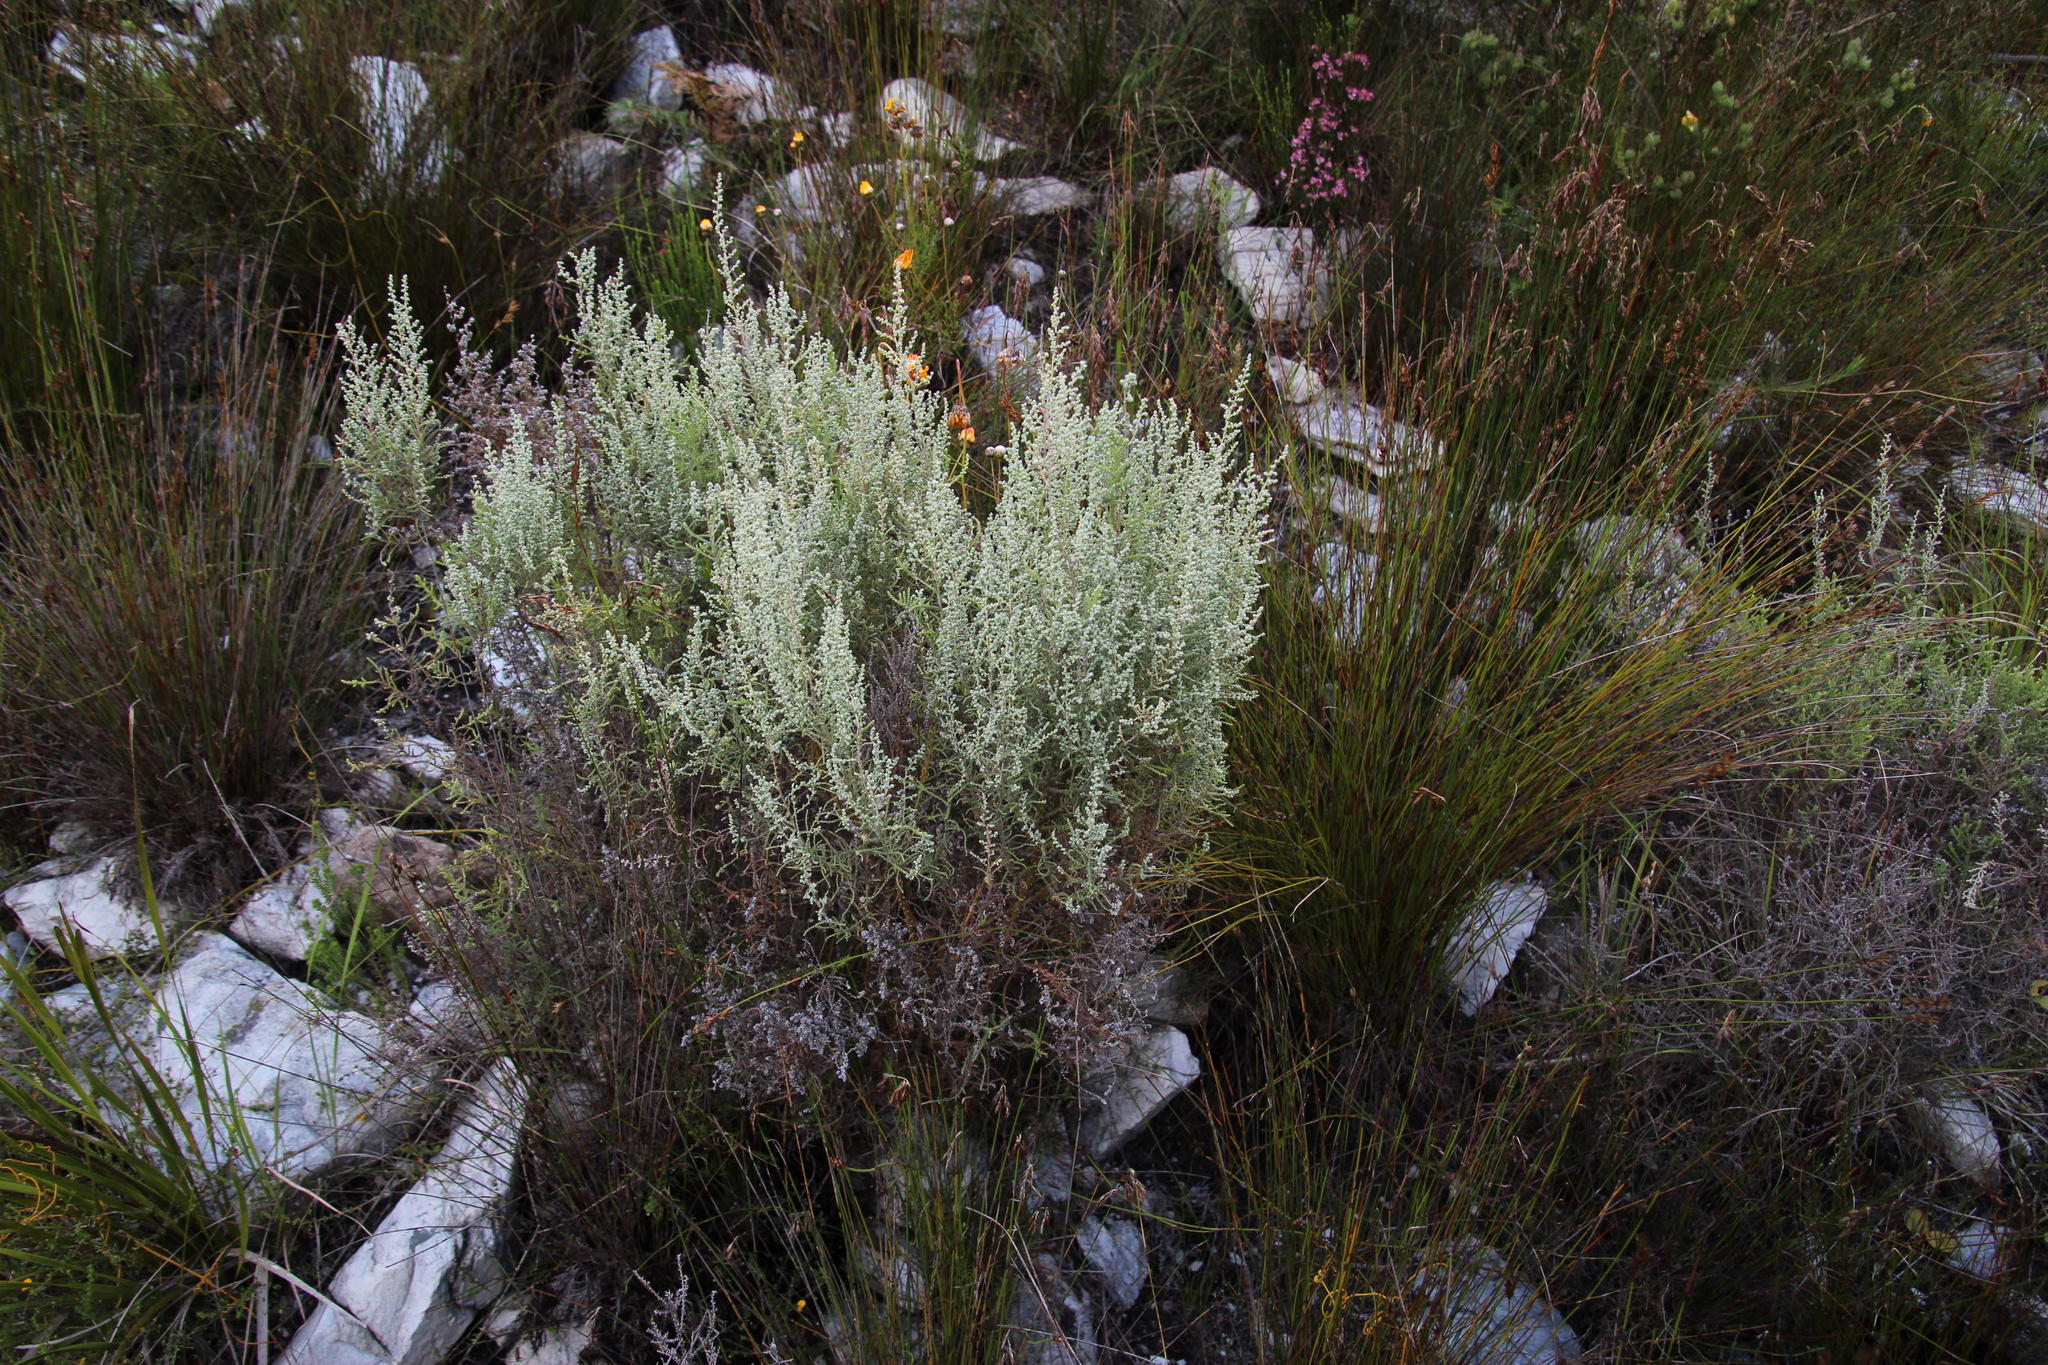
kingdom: Plantae
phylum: Tracheophyta
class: Magnoliopsida
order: Asterales
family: Asteraceae
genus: Seriphium
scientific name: Seriphium plumosum
